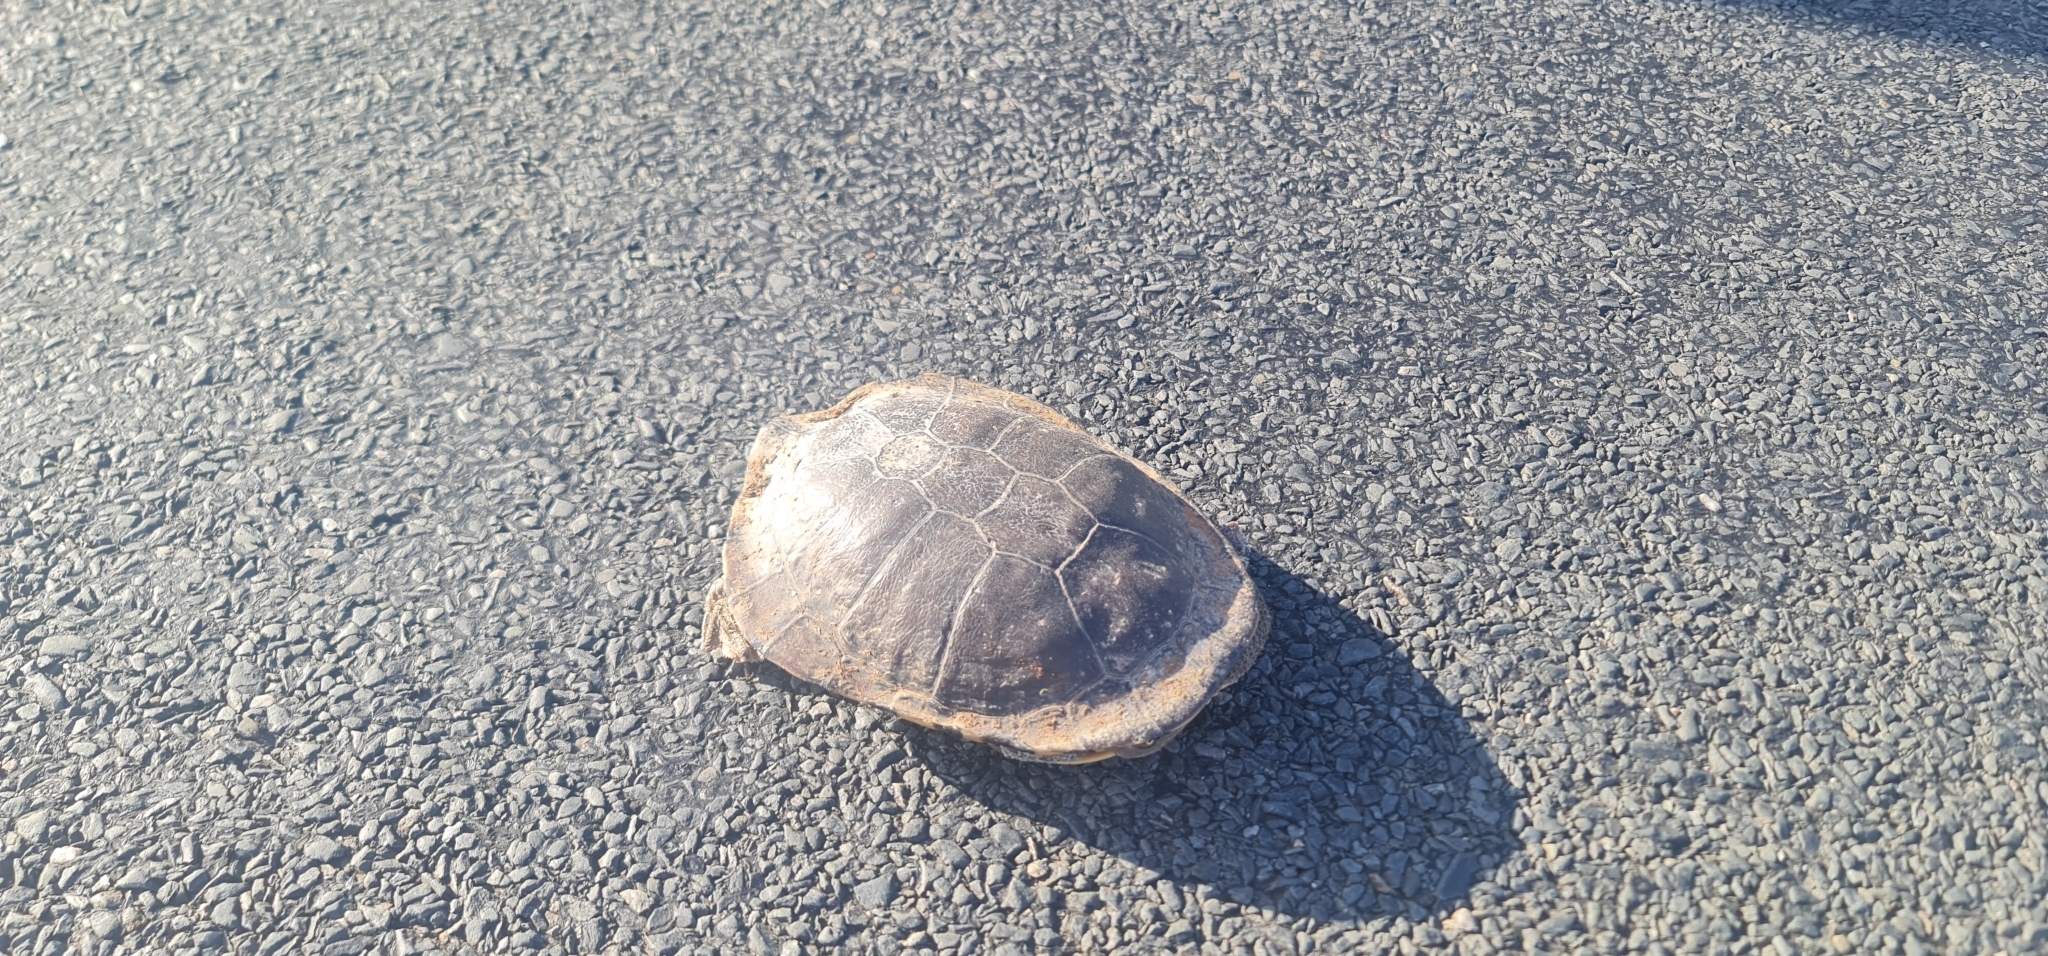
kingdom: Animalia
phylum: Chordata
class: Testudines
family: Chelidae
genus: Chelodina
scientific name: Chelodina longicollis
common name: Eastern snake-necked turtle
